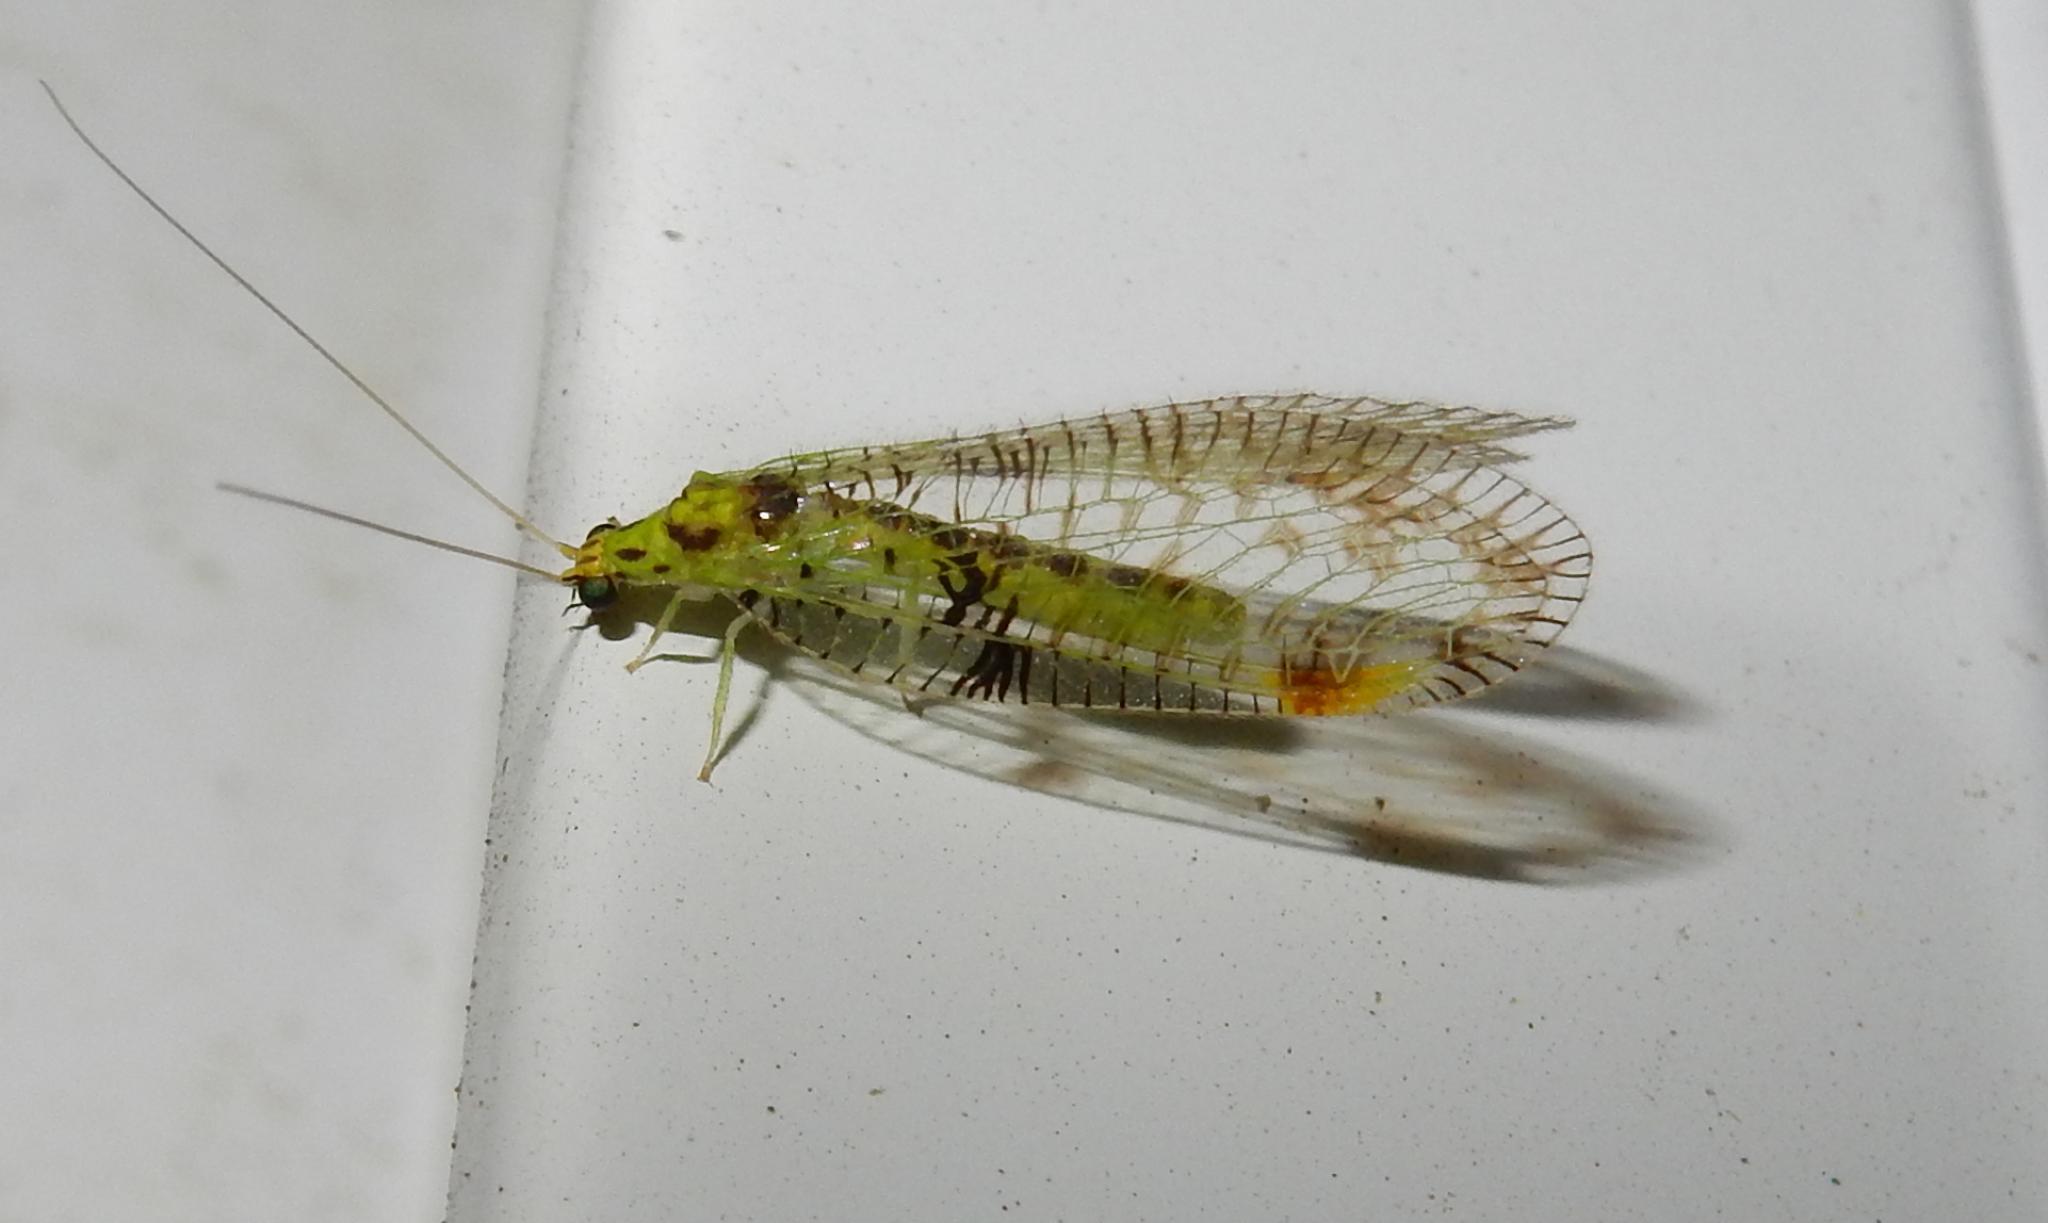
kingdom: Animalia
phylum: Arthropoda
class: Insecta
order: Neuroptera
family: Chrysopidae
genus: Glenochrysa
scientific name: Glenochrysa principissa
